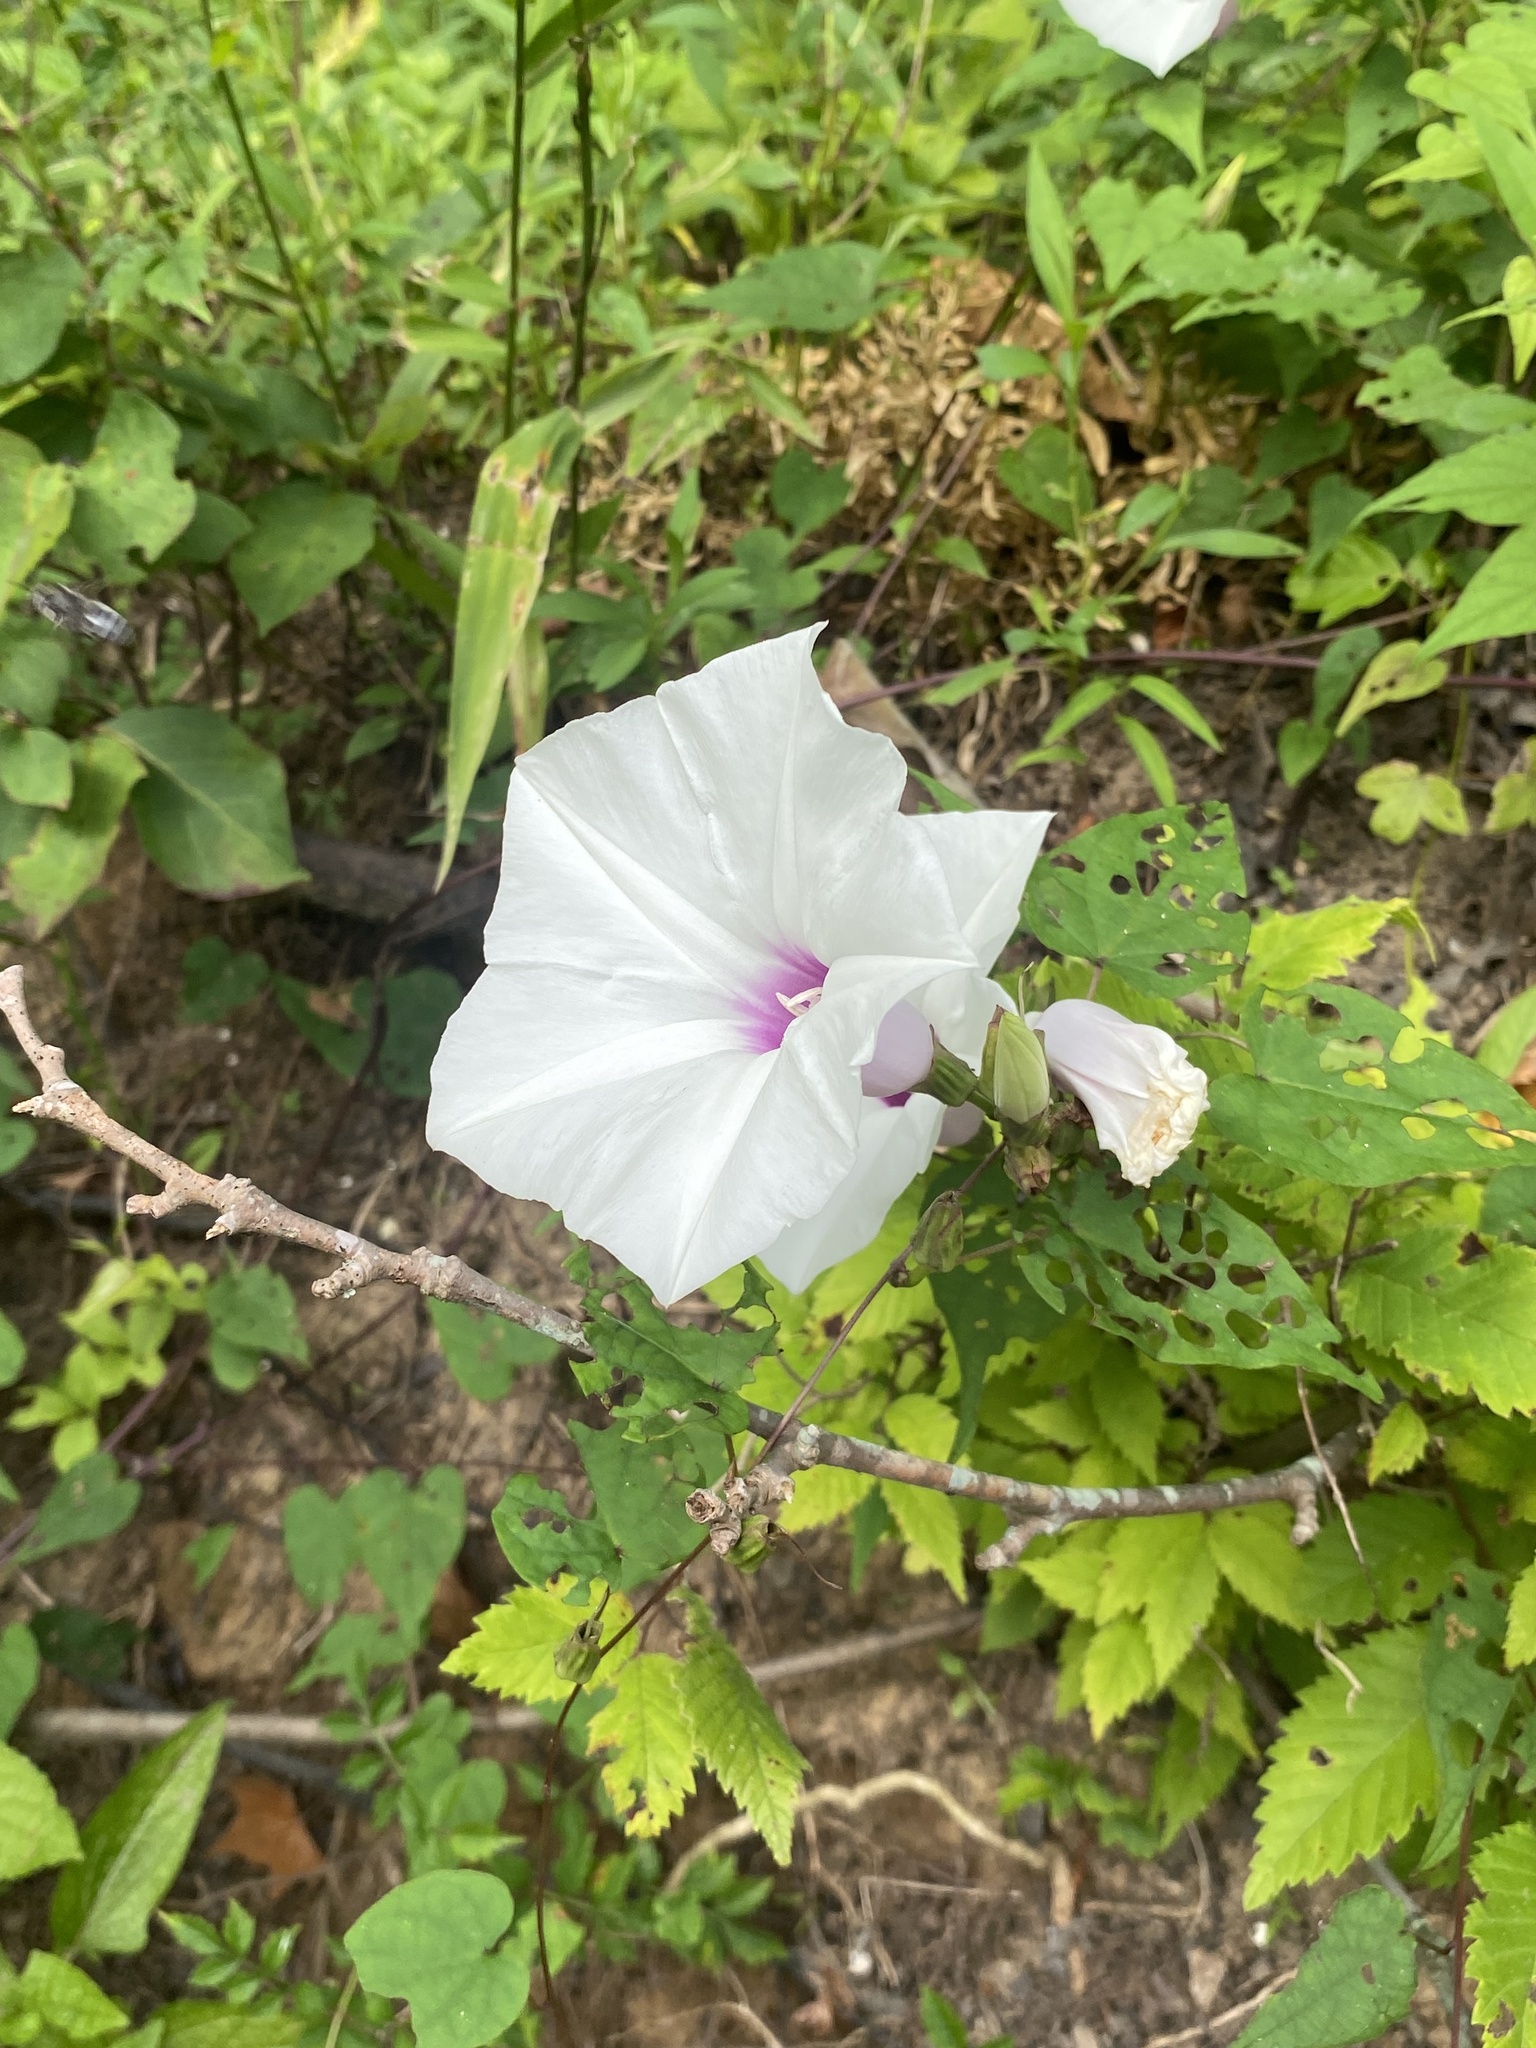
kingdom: Plantae
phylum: Tracheophyta
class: Magnoliopsida
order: Solanales
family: Convolvulaceae
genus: Ipomoea
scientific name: Ipomoea pandurata
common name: Man-of-the-earth
